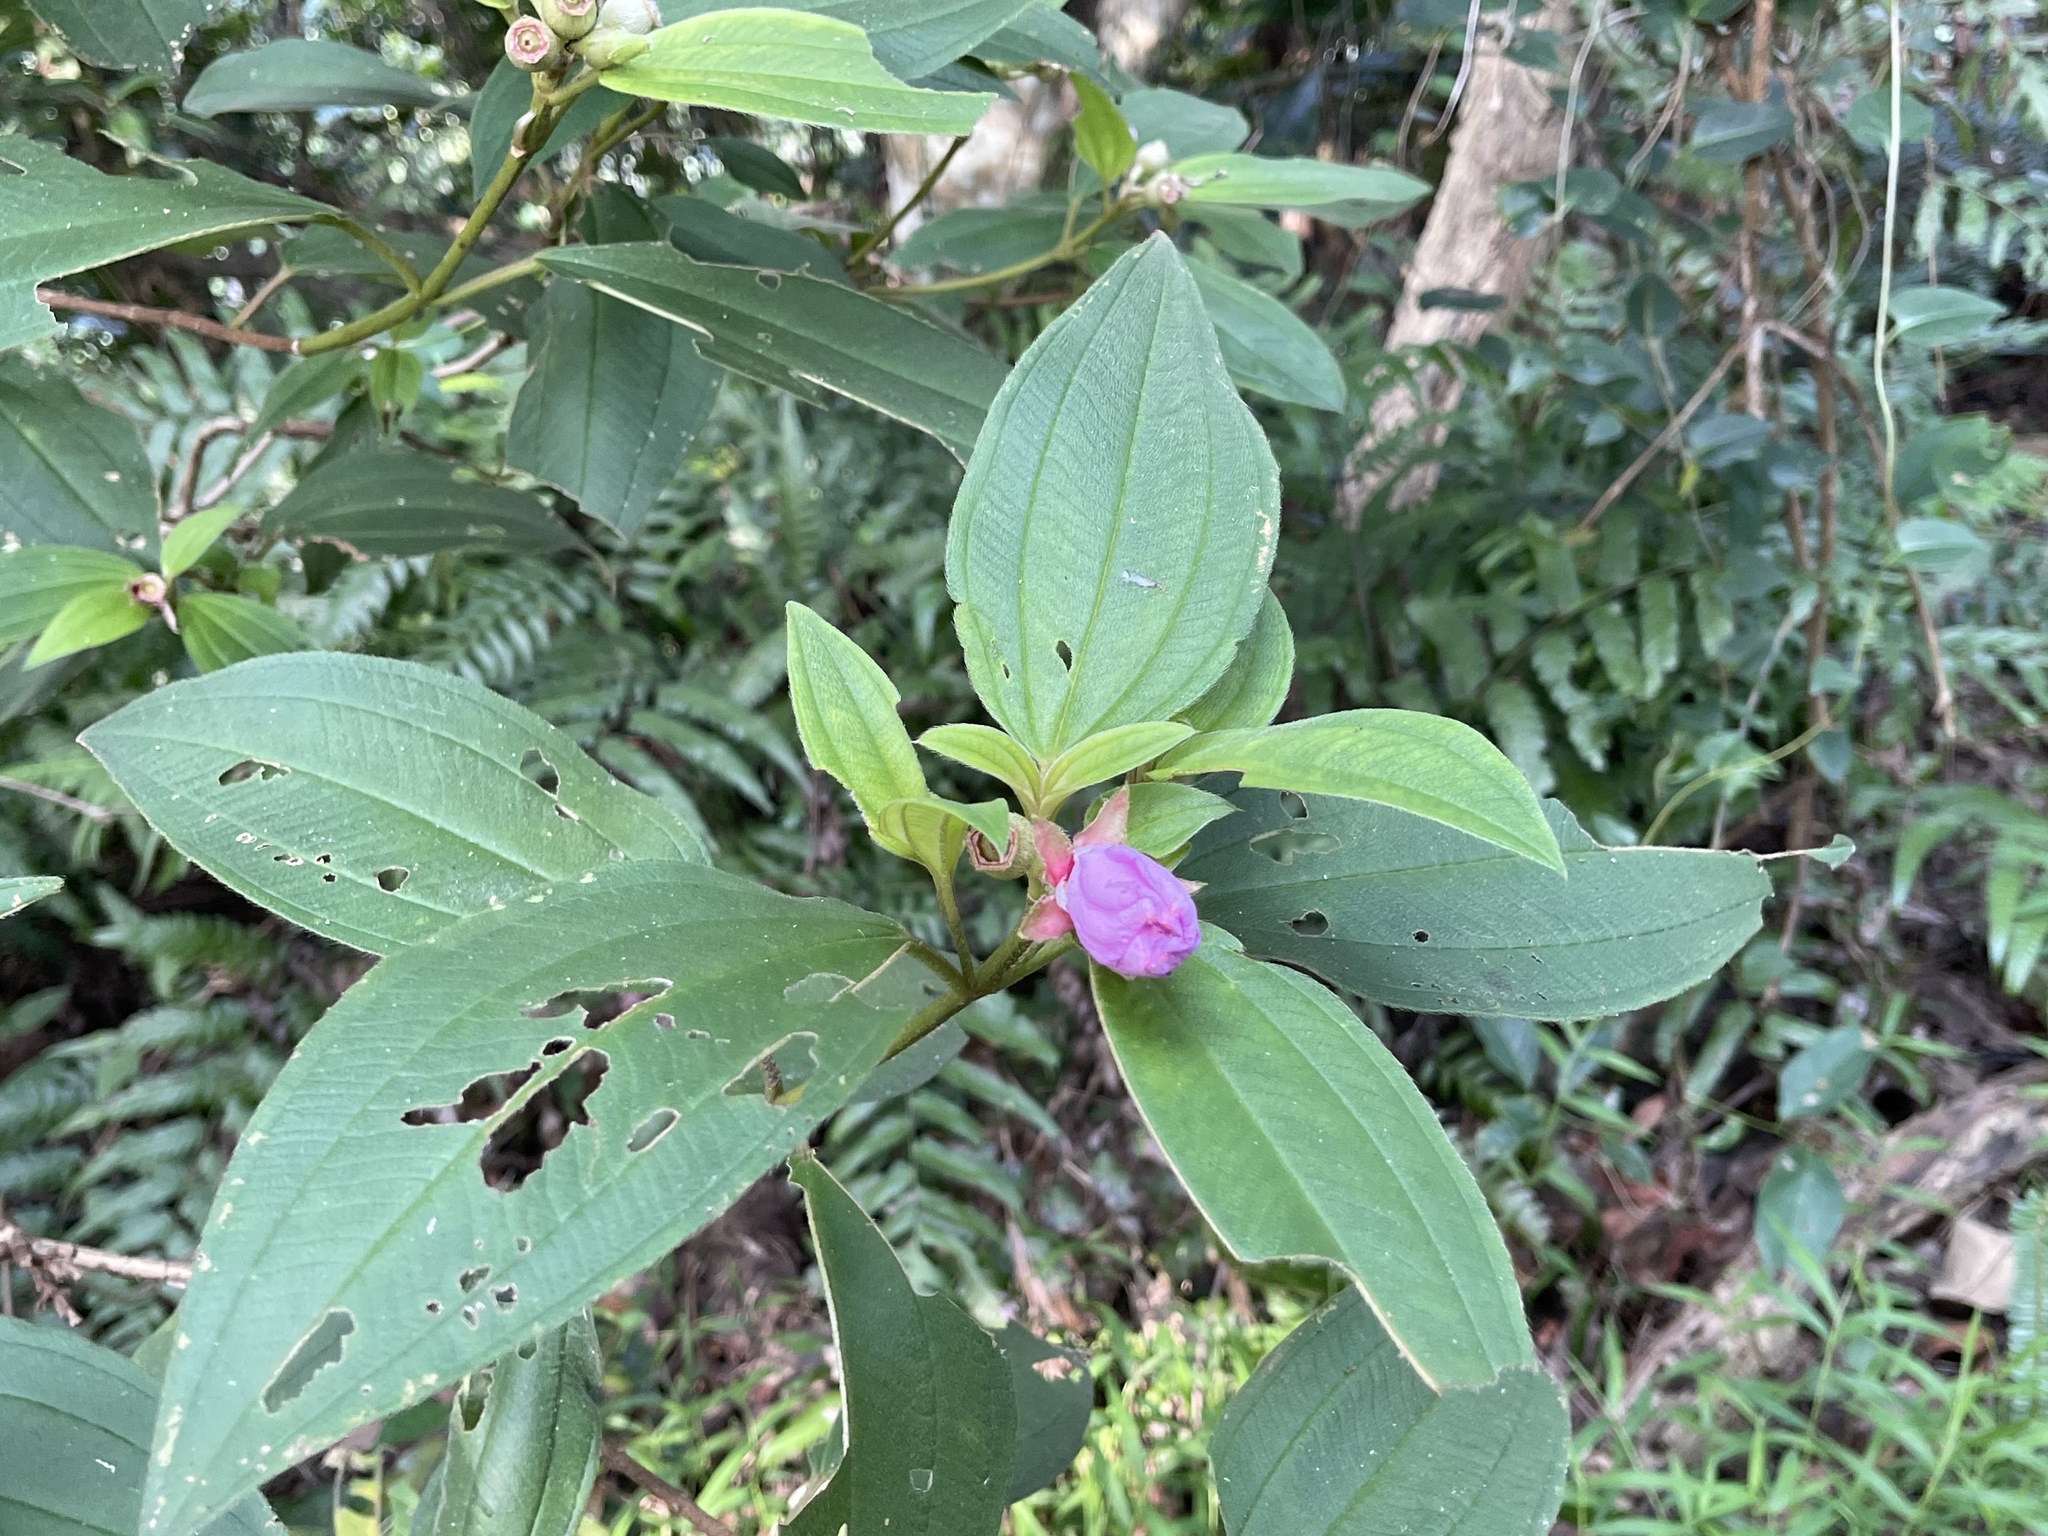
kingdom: Plantae
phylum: Tracheophyta
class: Magnoliopsida
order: Myrtales
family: Melastomataceae
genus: Melastoma
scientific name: Melastoma malabathricum
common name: Indian-rhododendron
